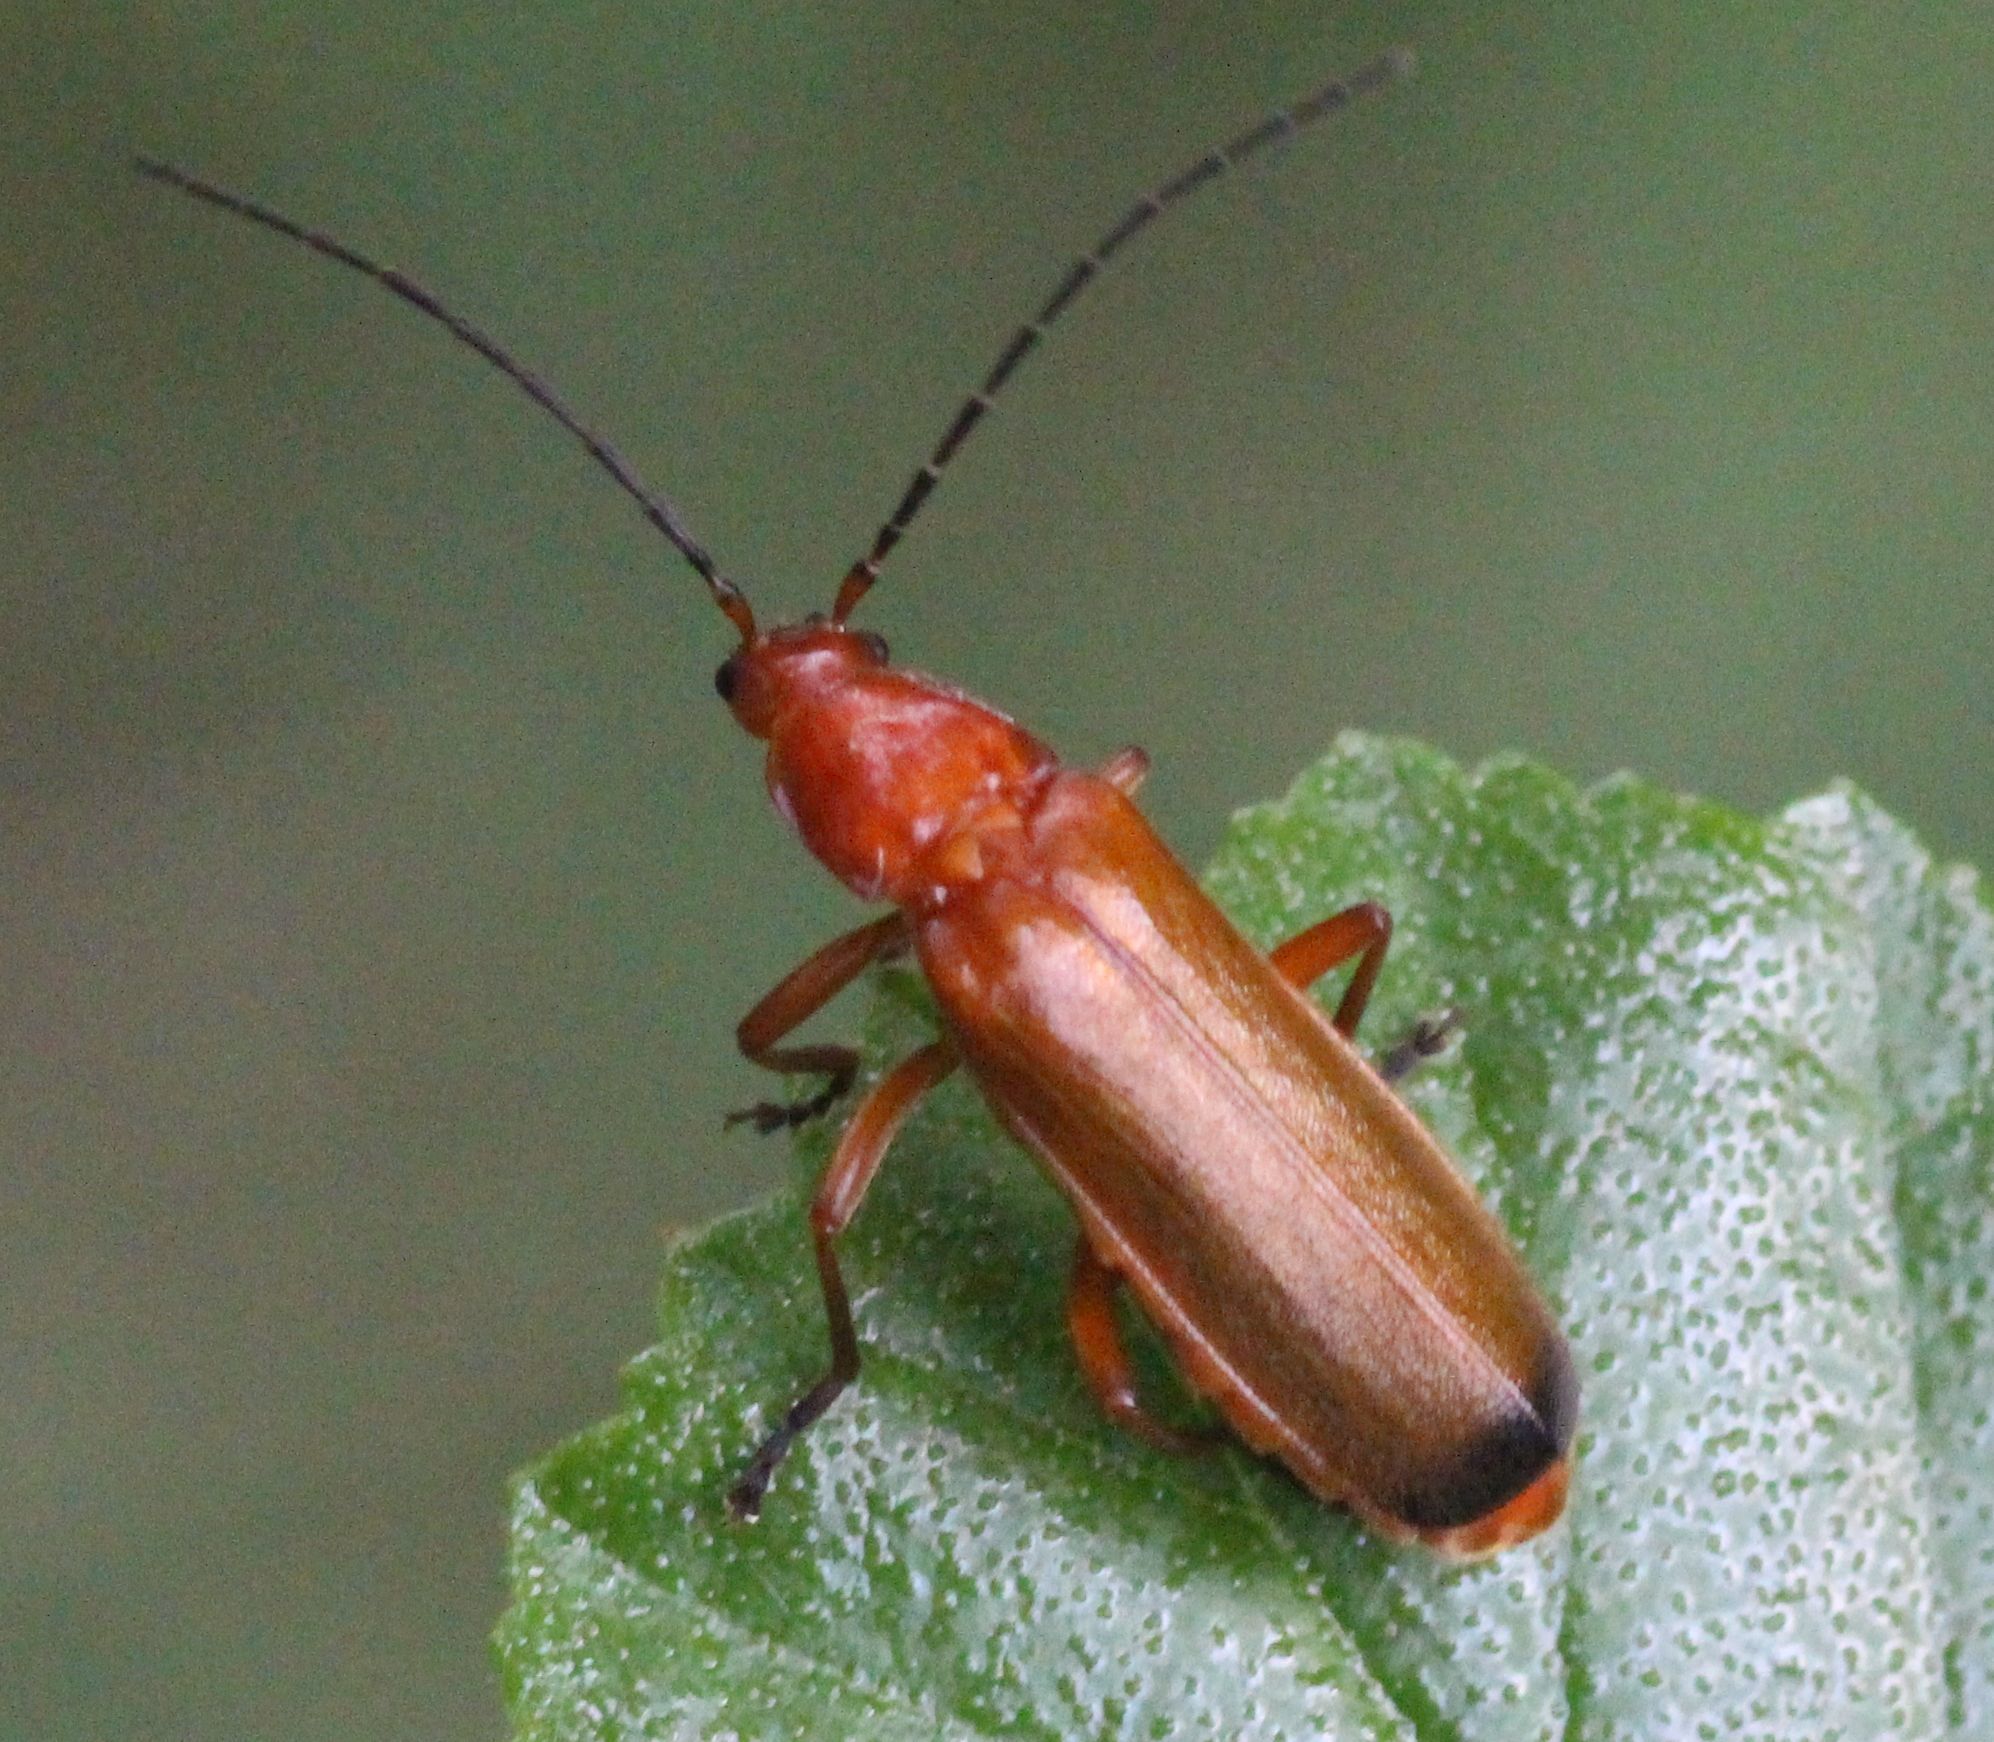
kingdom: Animalia
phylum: Arthropoda
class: Insecta
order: Coleoptera
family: Cantharidae
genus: Rhagonycha
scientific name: Rhagonycha fulva
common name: Common red soldier beetle
